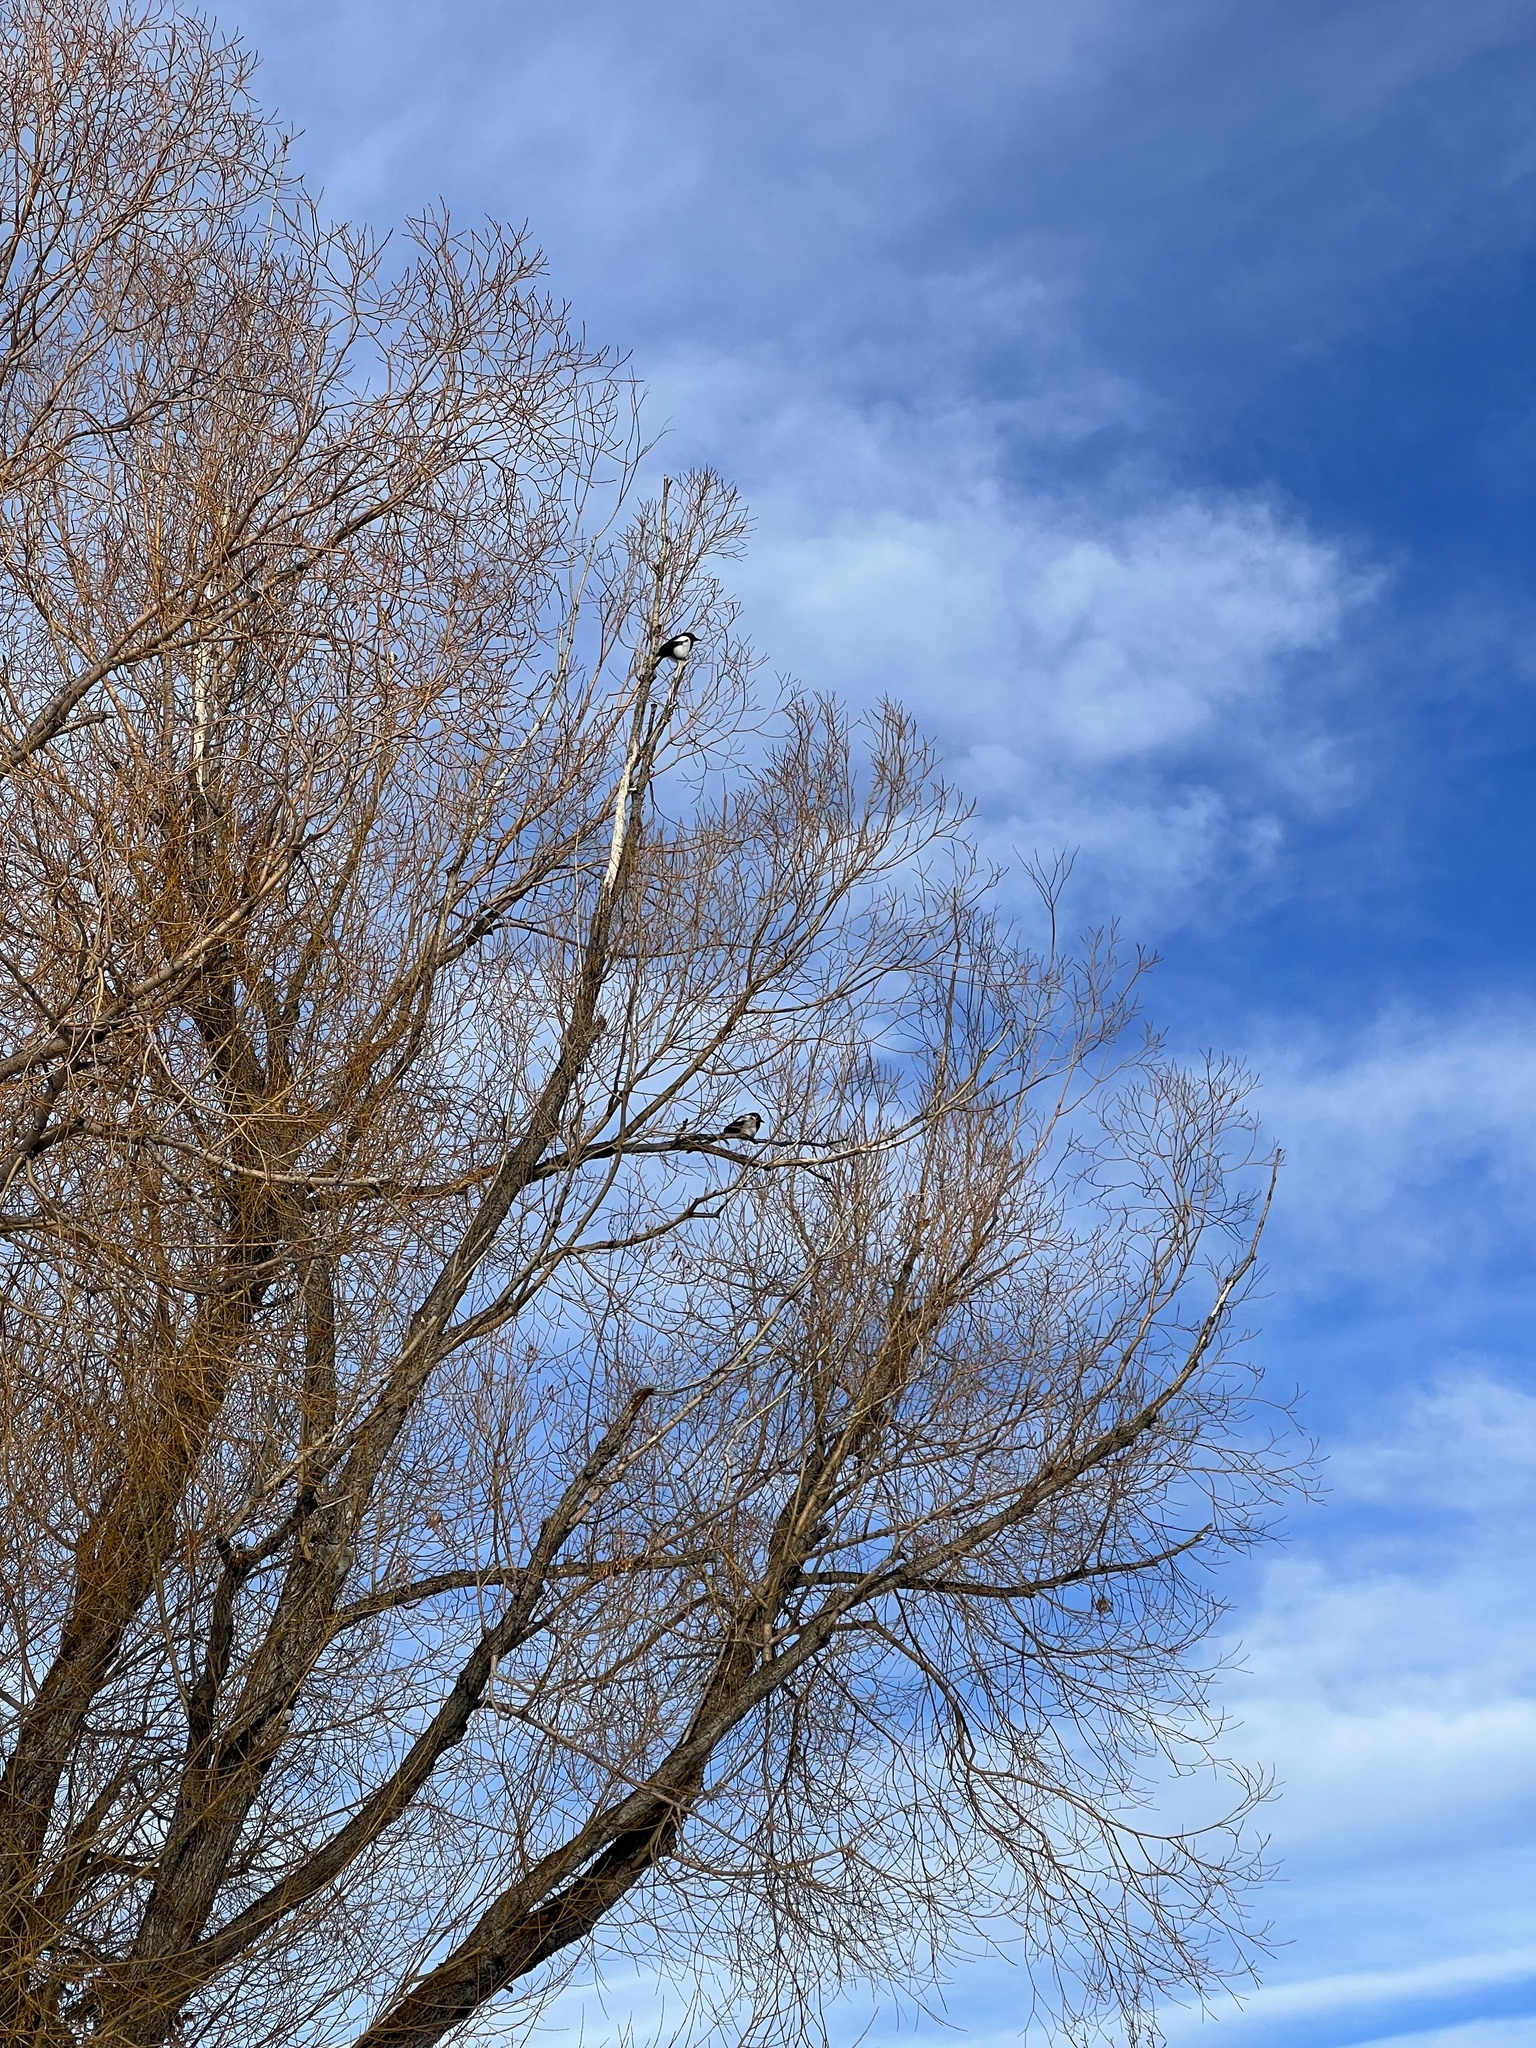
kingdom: Animalia
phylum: Chordata
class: Aves
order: Passeriformes
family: Corvidae
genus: Pica
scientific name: Pica hudsonia
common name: Black-billed magpie
